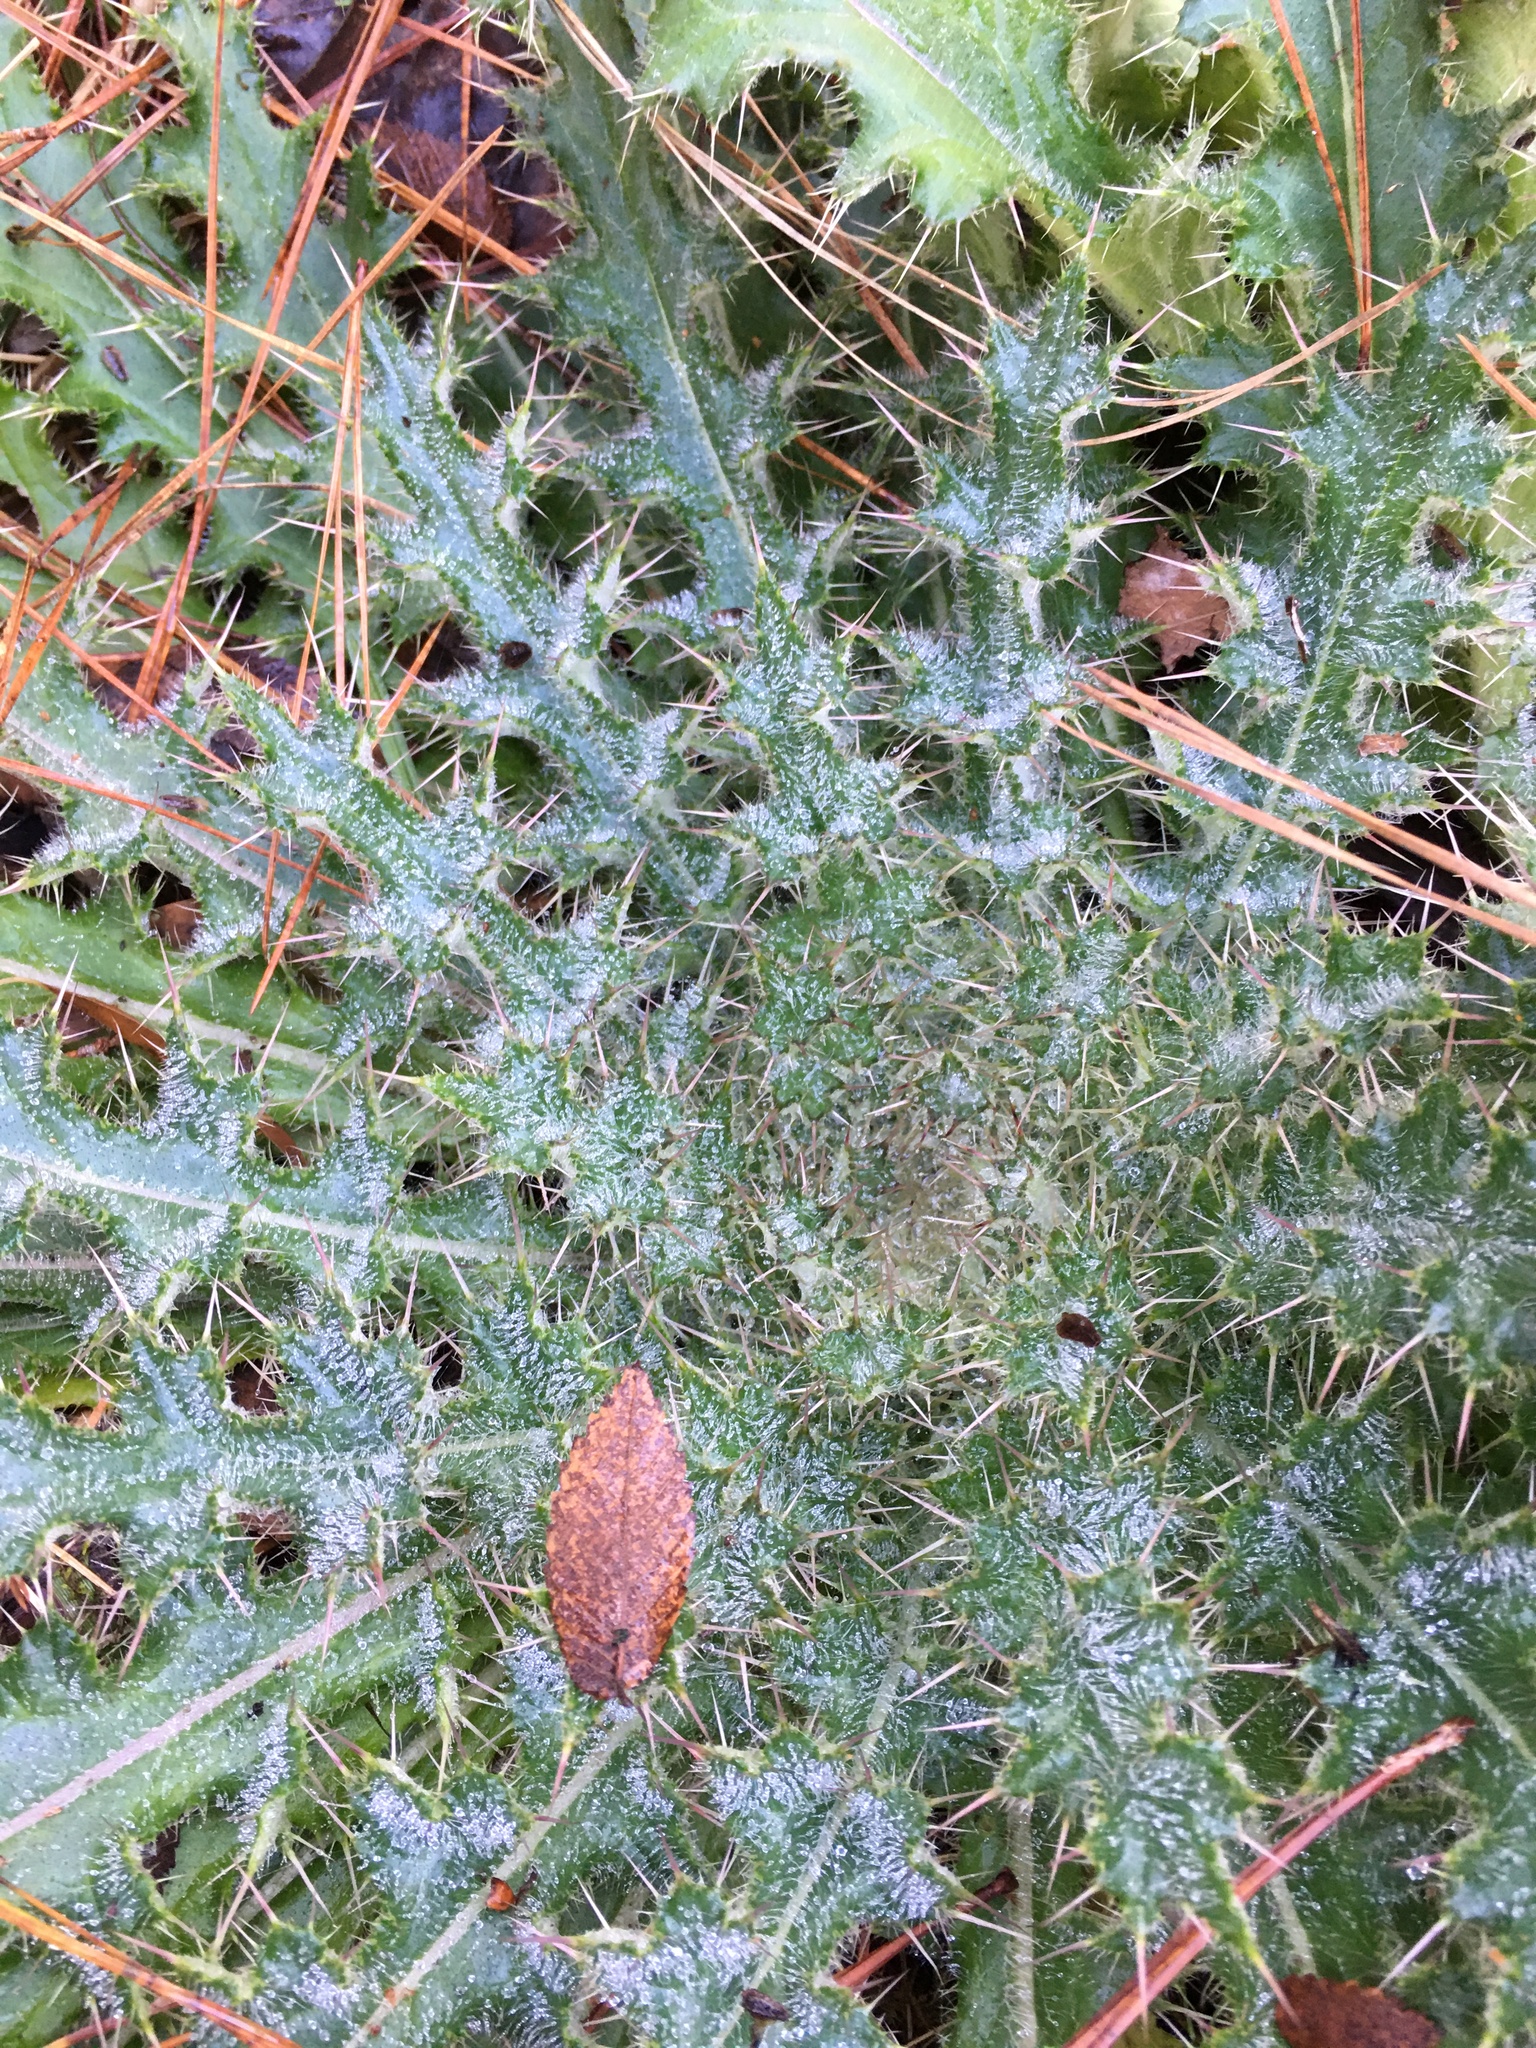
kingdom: Plantae
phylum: Tracheophyta
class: Magnoliopsida
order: Asterales
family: Asteraceae
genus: Cirsium
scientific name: Cirsium horridulum
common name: Bristly thistle
